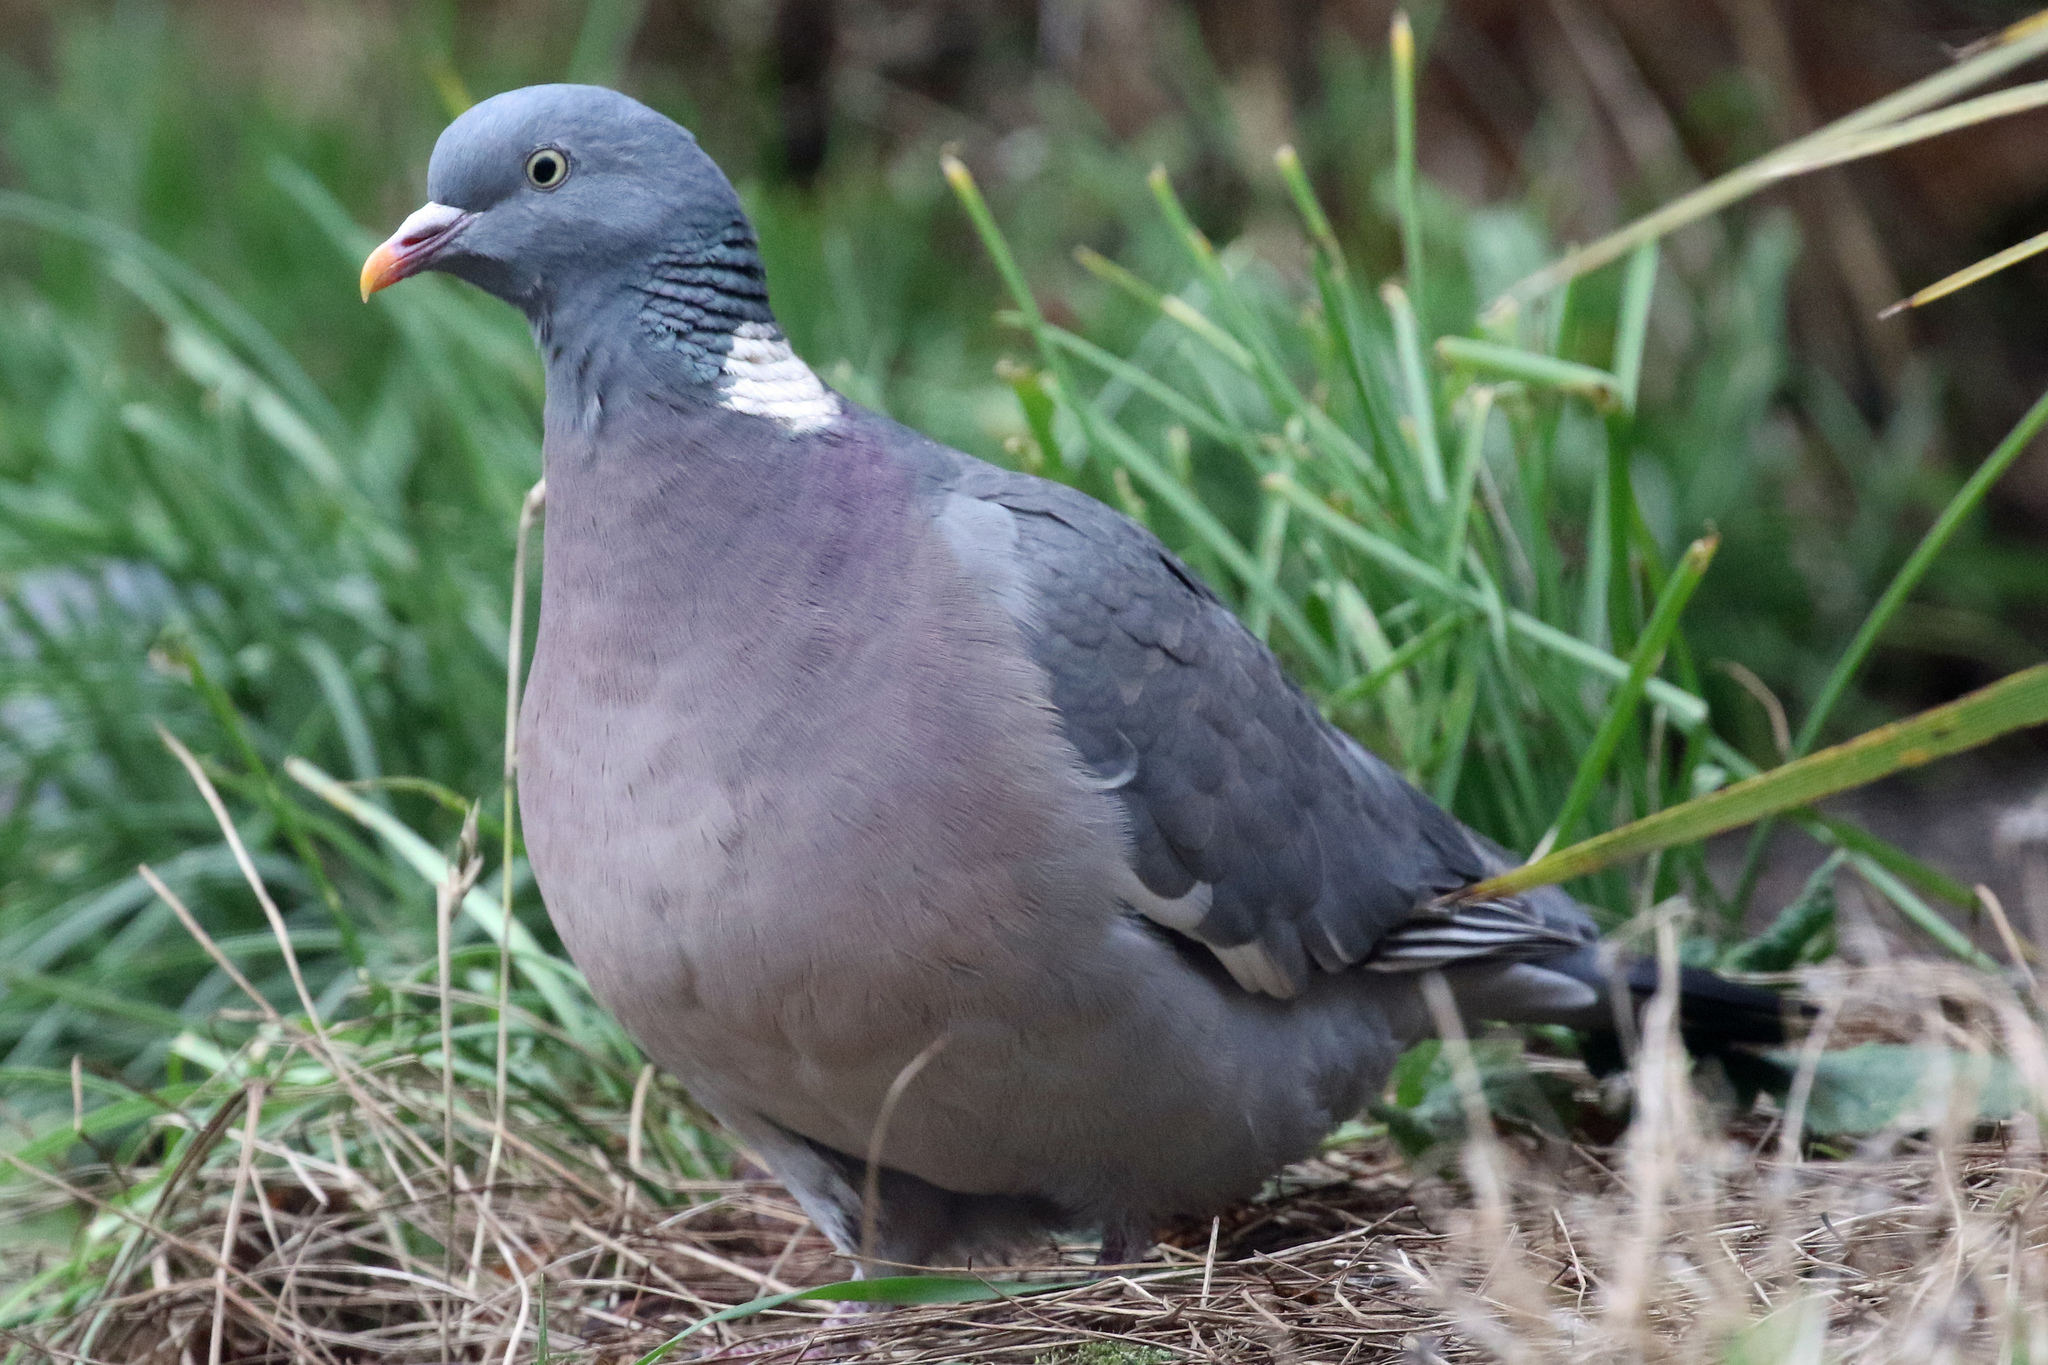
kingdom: Animalia
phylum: Chordata
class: Aves
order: Columbiformes
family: Columbidae
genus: Columba
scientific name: Columba palumbus
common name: Common wood pigeon
